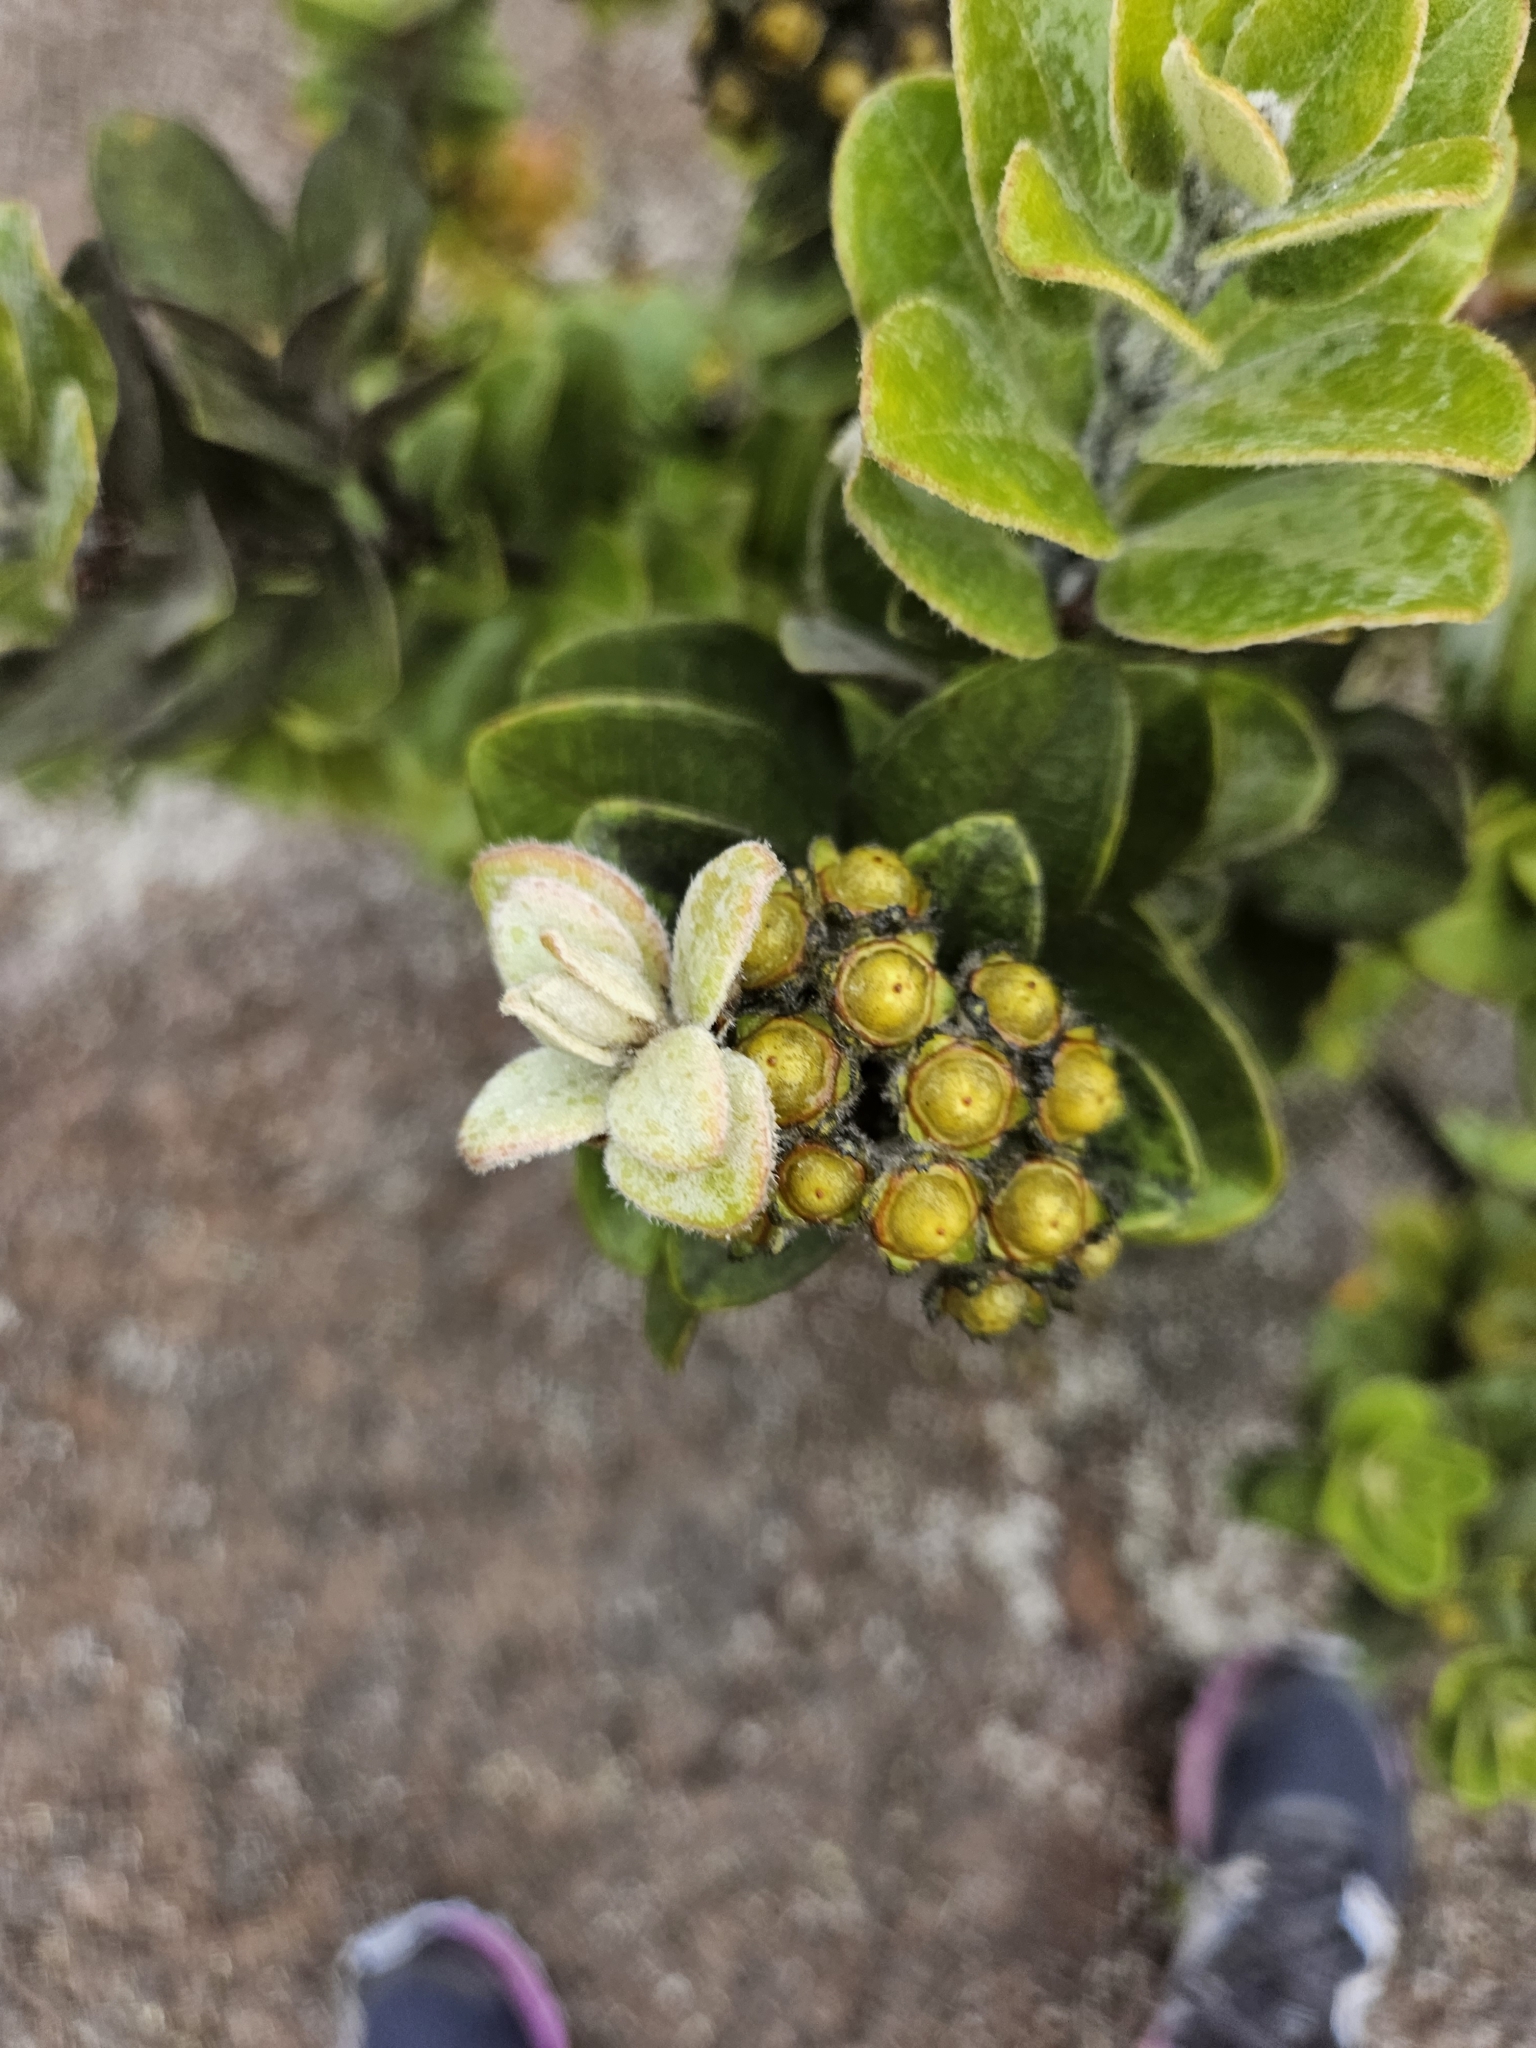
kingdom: Plantae
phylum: Tracheophyta
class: Magnoliopsida
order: Myrtales
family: Myrtaceae
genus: Metrosideros
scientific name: Metrosideros polymorpha
